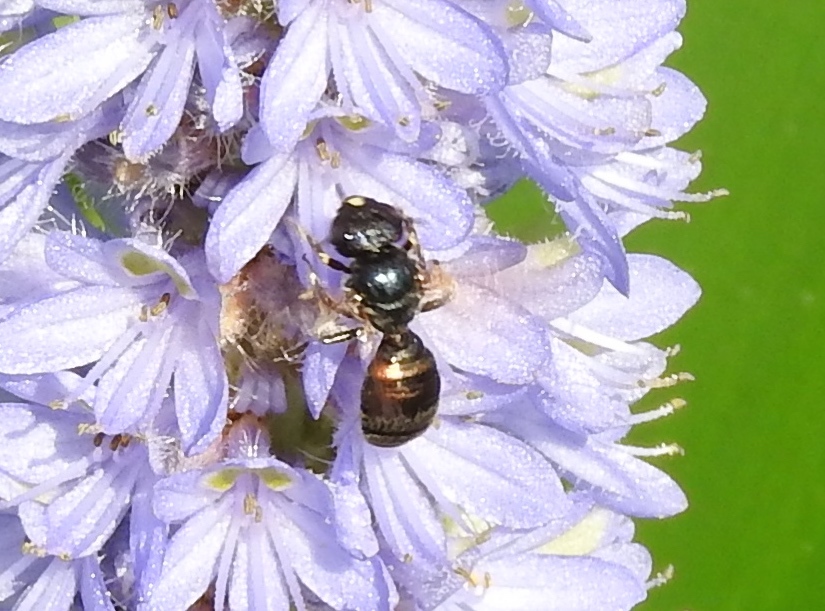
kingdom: Animalia
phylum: Arthropoda
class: Insecta
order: Hymenoptera
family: Apidae
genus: Ceratina
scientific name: Ceratina
